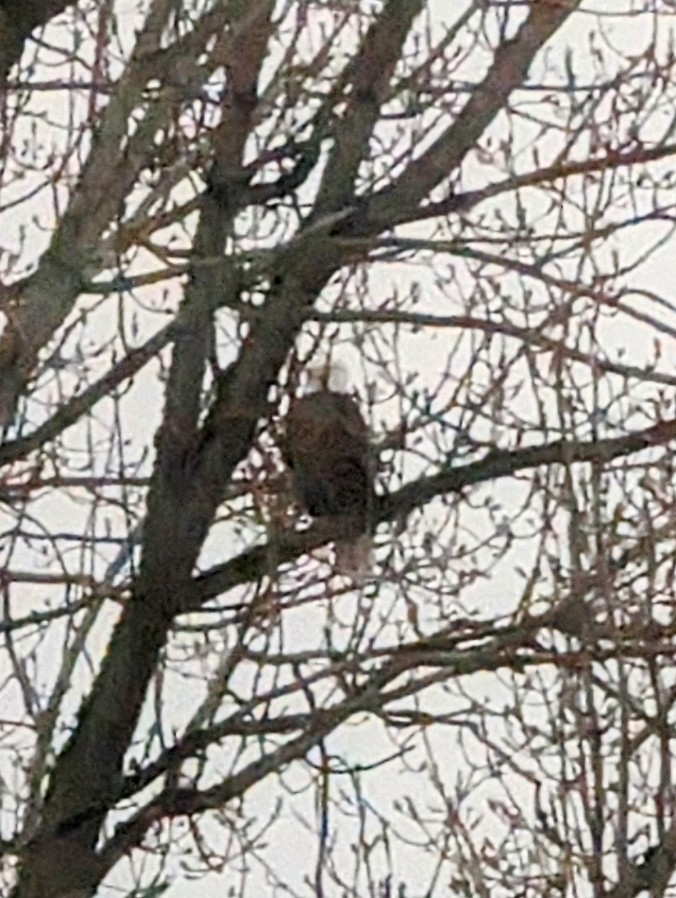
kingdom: Animalia
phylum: Chordata
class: Aves
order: Accipitriformes
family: Accipitridae
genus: Haliaeetus
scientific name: Haliaeetus leucocephalus
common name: Bald eagle
